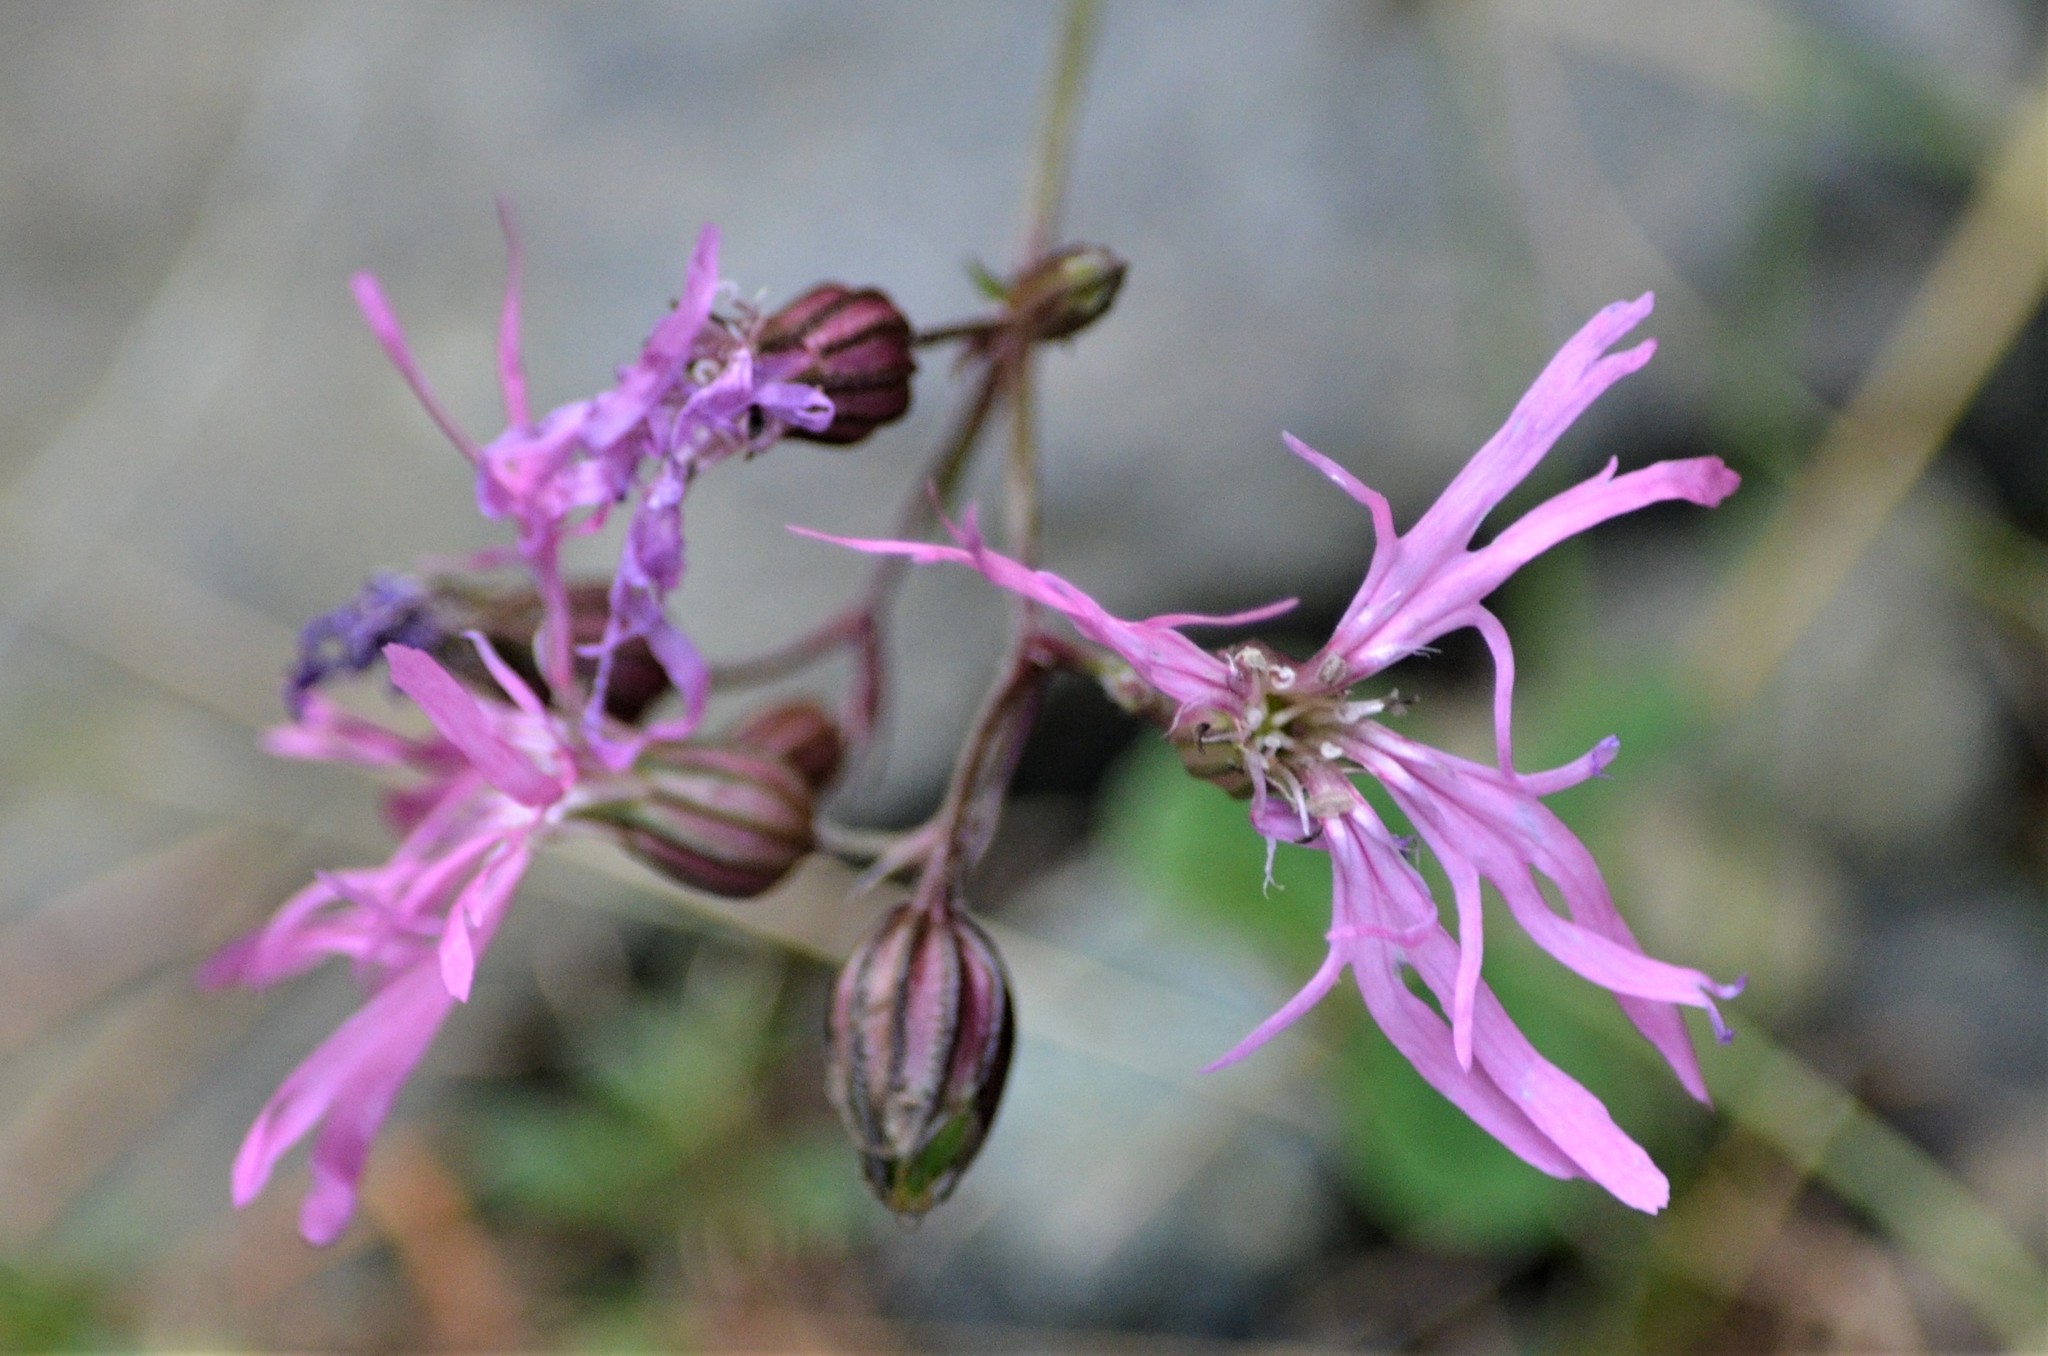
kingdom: Plantae
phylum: Tracheophyta
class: Magnoliopsida
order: Caryophyllales
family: Caryophyllaceae
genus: Silene
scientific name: Silene flos-cuculi
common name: Ragged-robin
